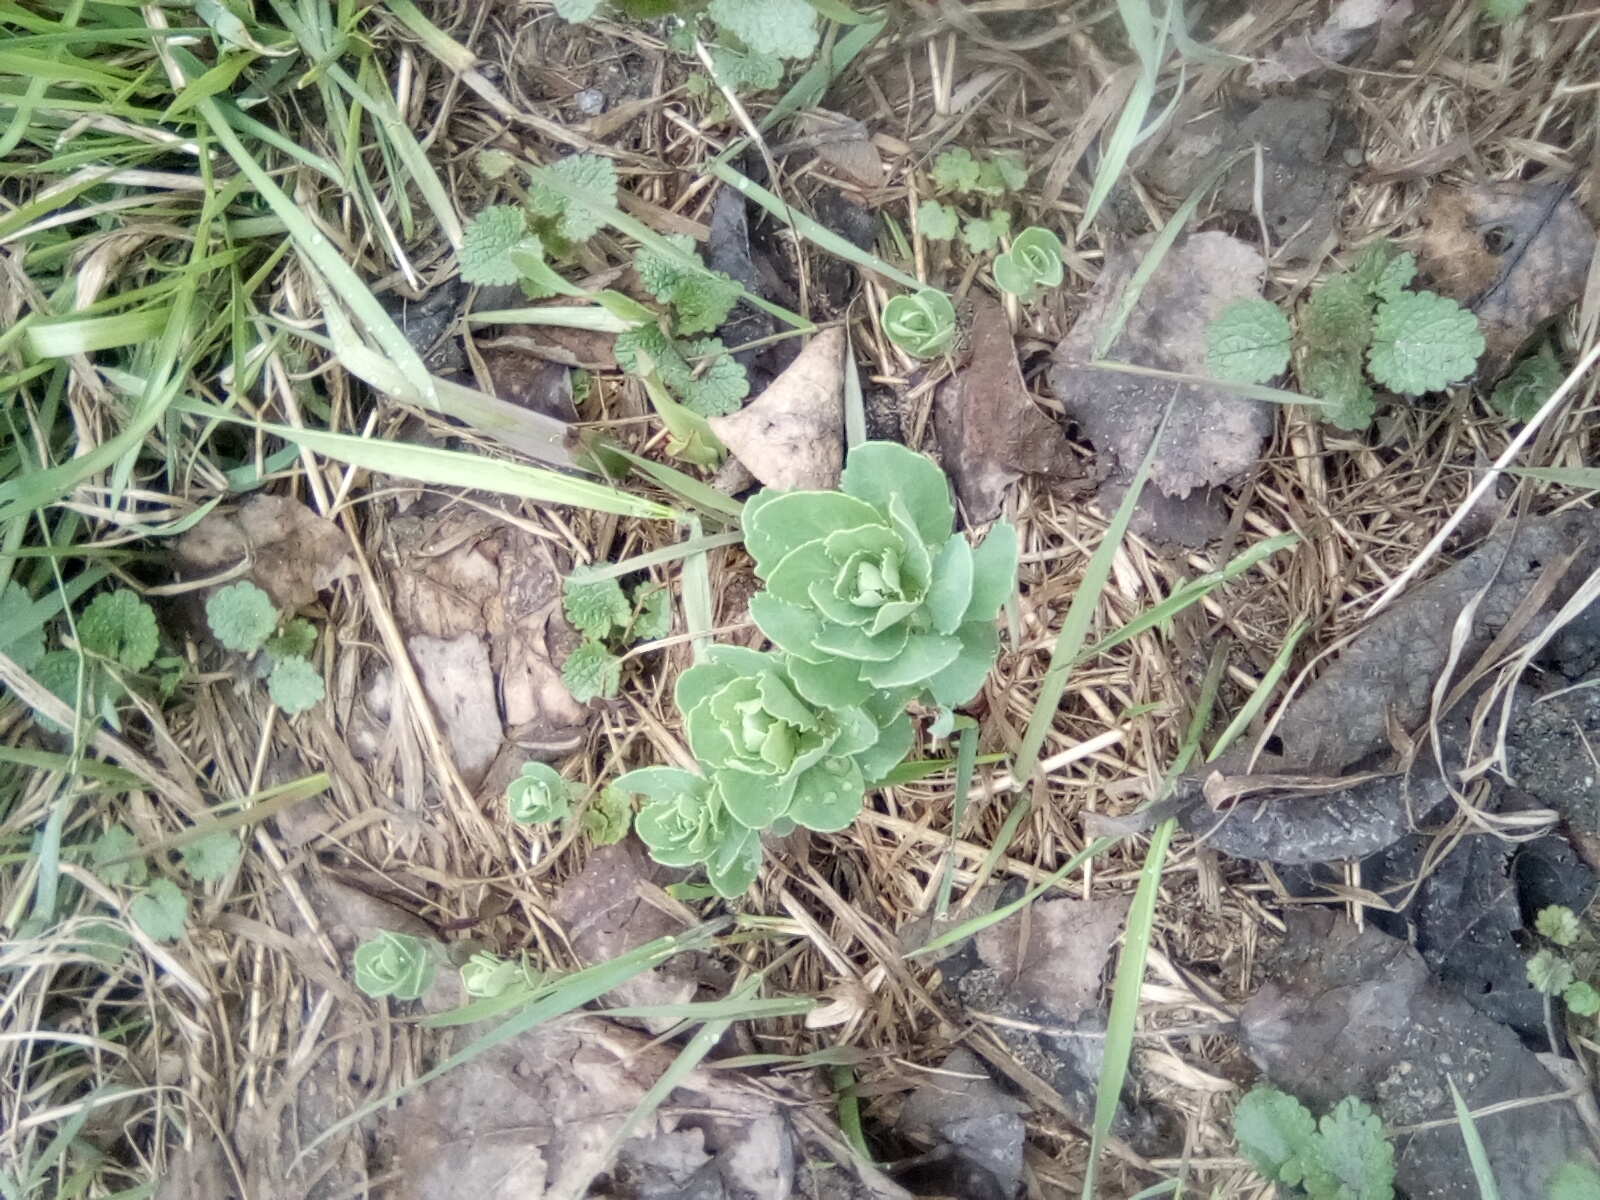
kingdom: Plantae
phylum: Tracheophyta
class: Magnoliopsida
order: Saxifragales
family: Crassulaceae
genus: Hylotelephium
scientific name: Hylotelephium telephium
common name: Live-forever
